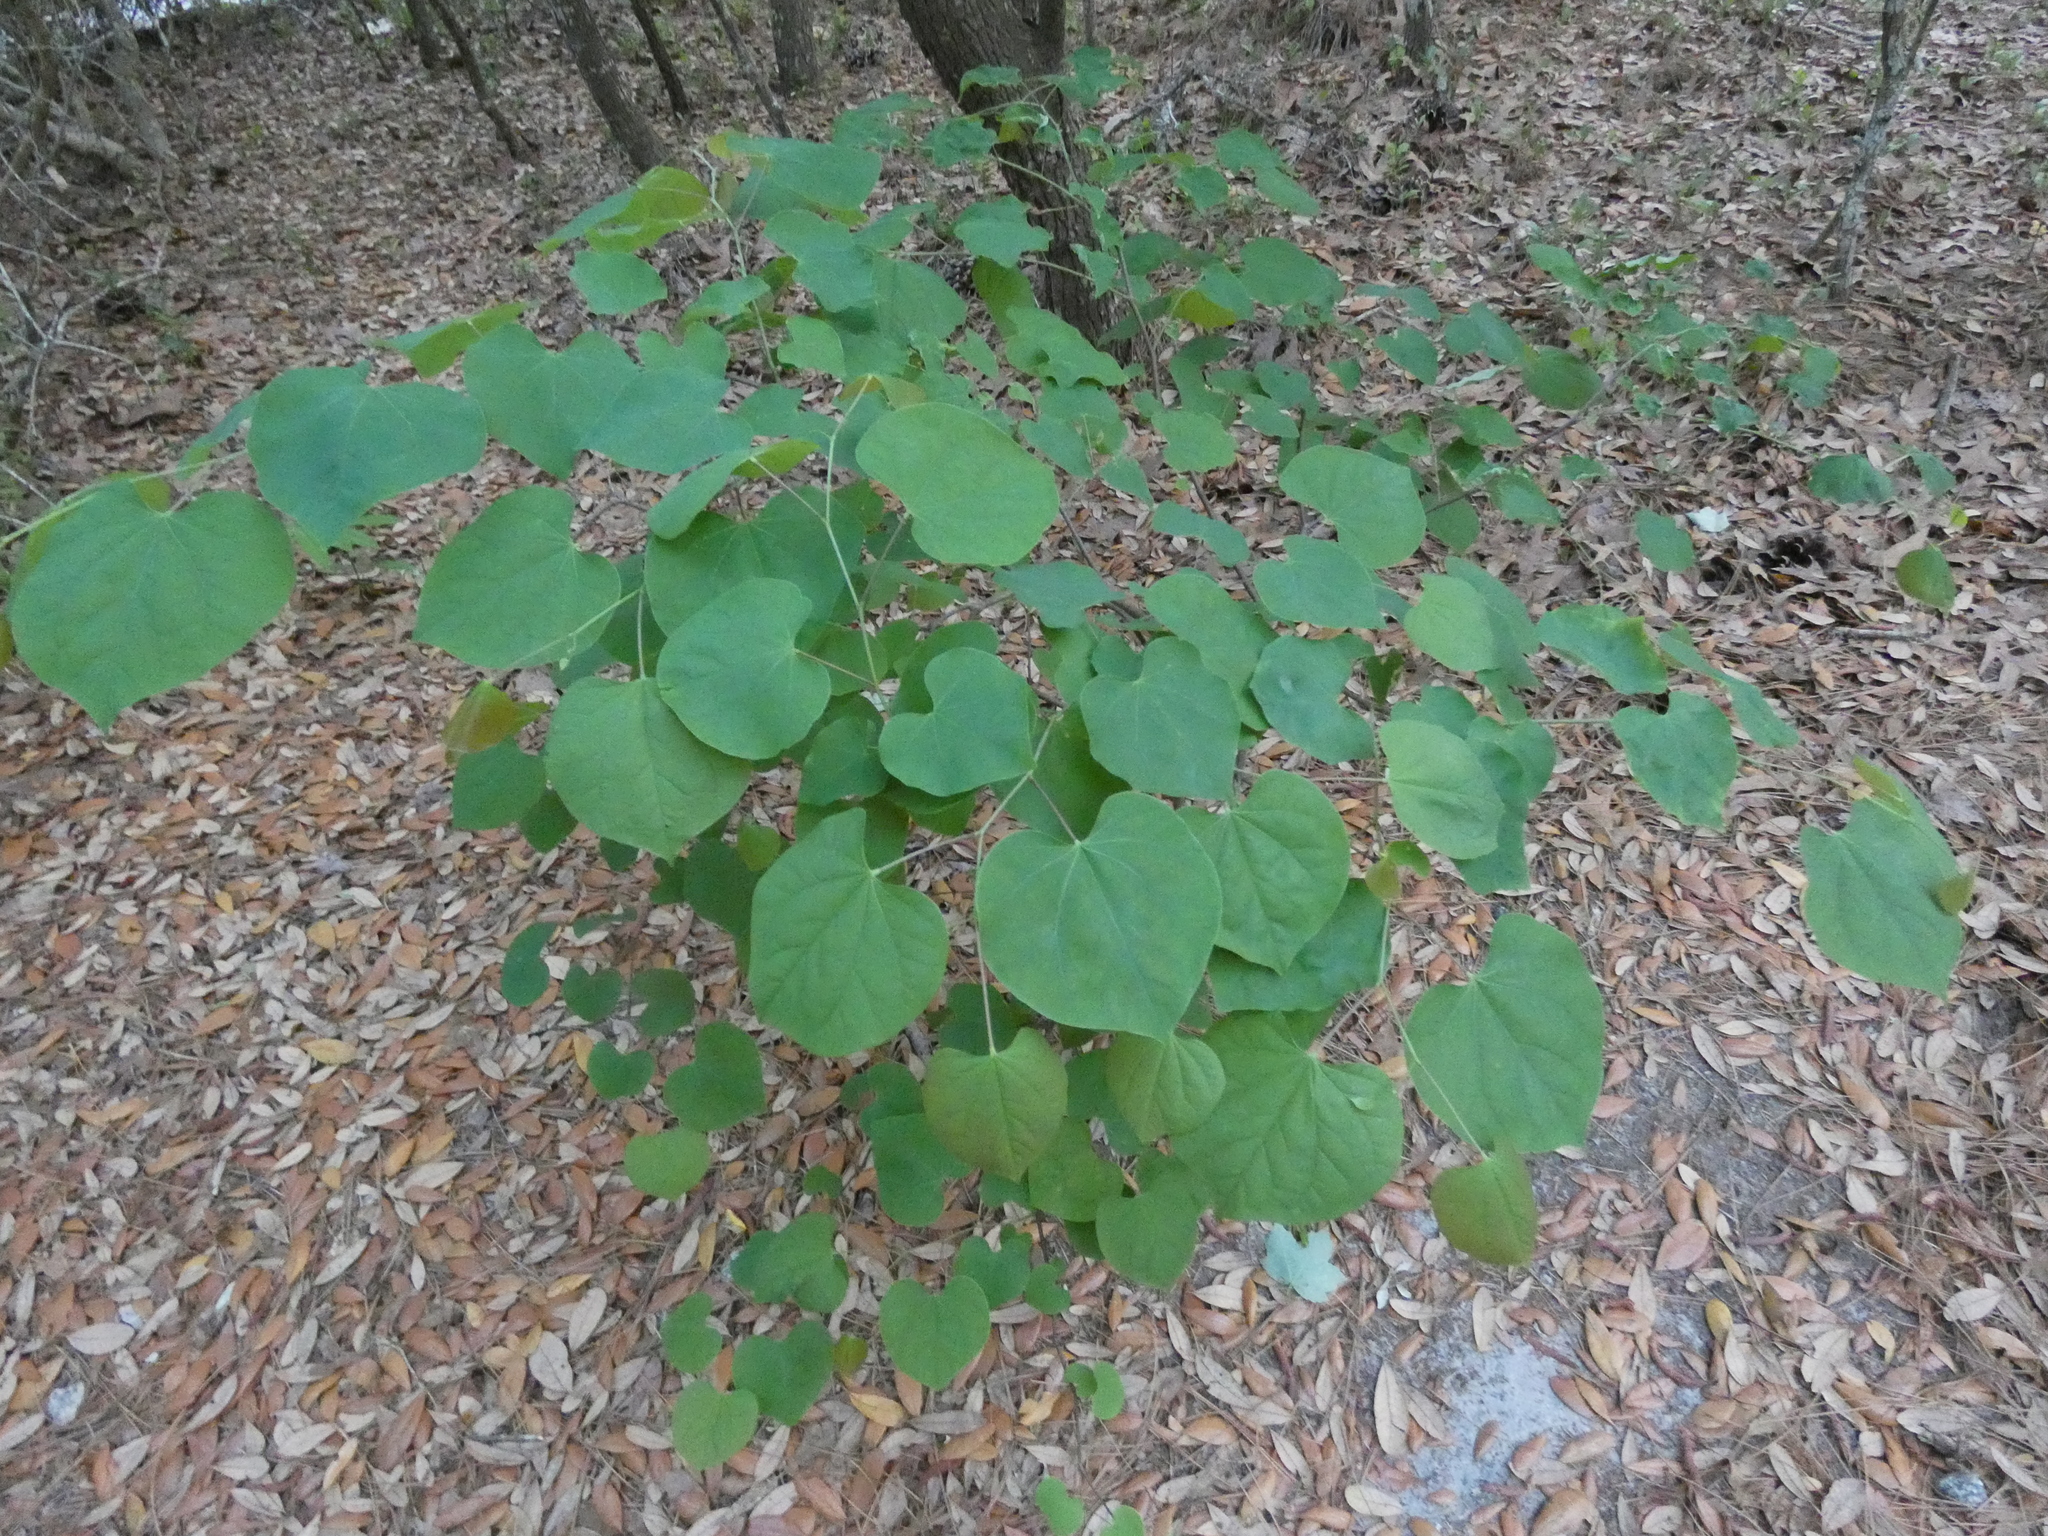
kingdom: Plantae
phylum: Tracheophyta
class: Magnoliopsida
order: Fabales
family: Fabaceae
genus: Cercis
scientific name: Cercis canadensis
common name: Eastern redbud
